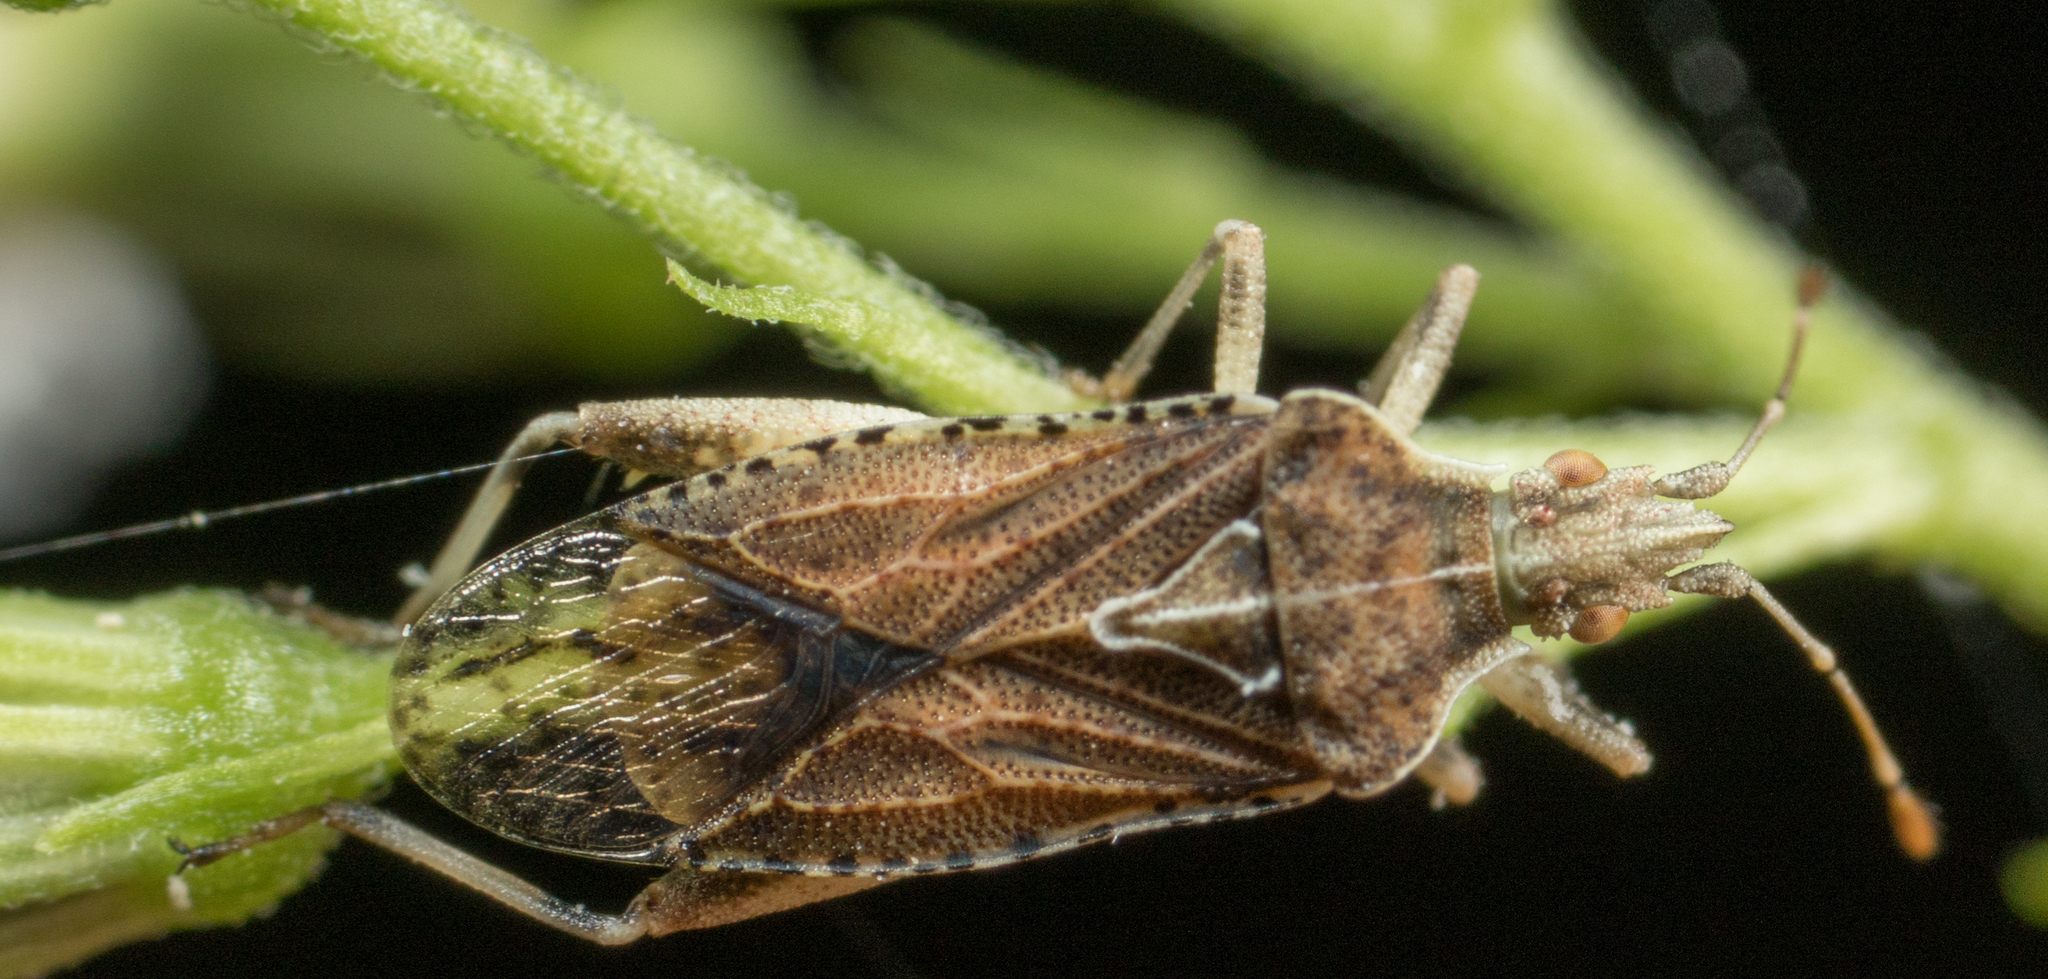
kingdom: Animalia
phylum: Arthropoda
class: Insecta
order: Hemiptera
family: Rhopalidae
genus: Harmostes
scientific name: Harmostes fraterculus
